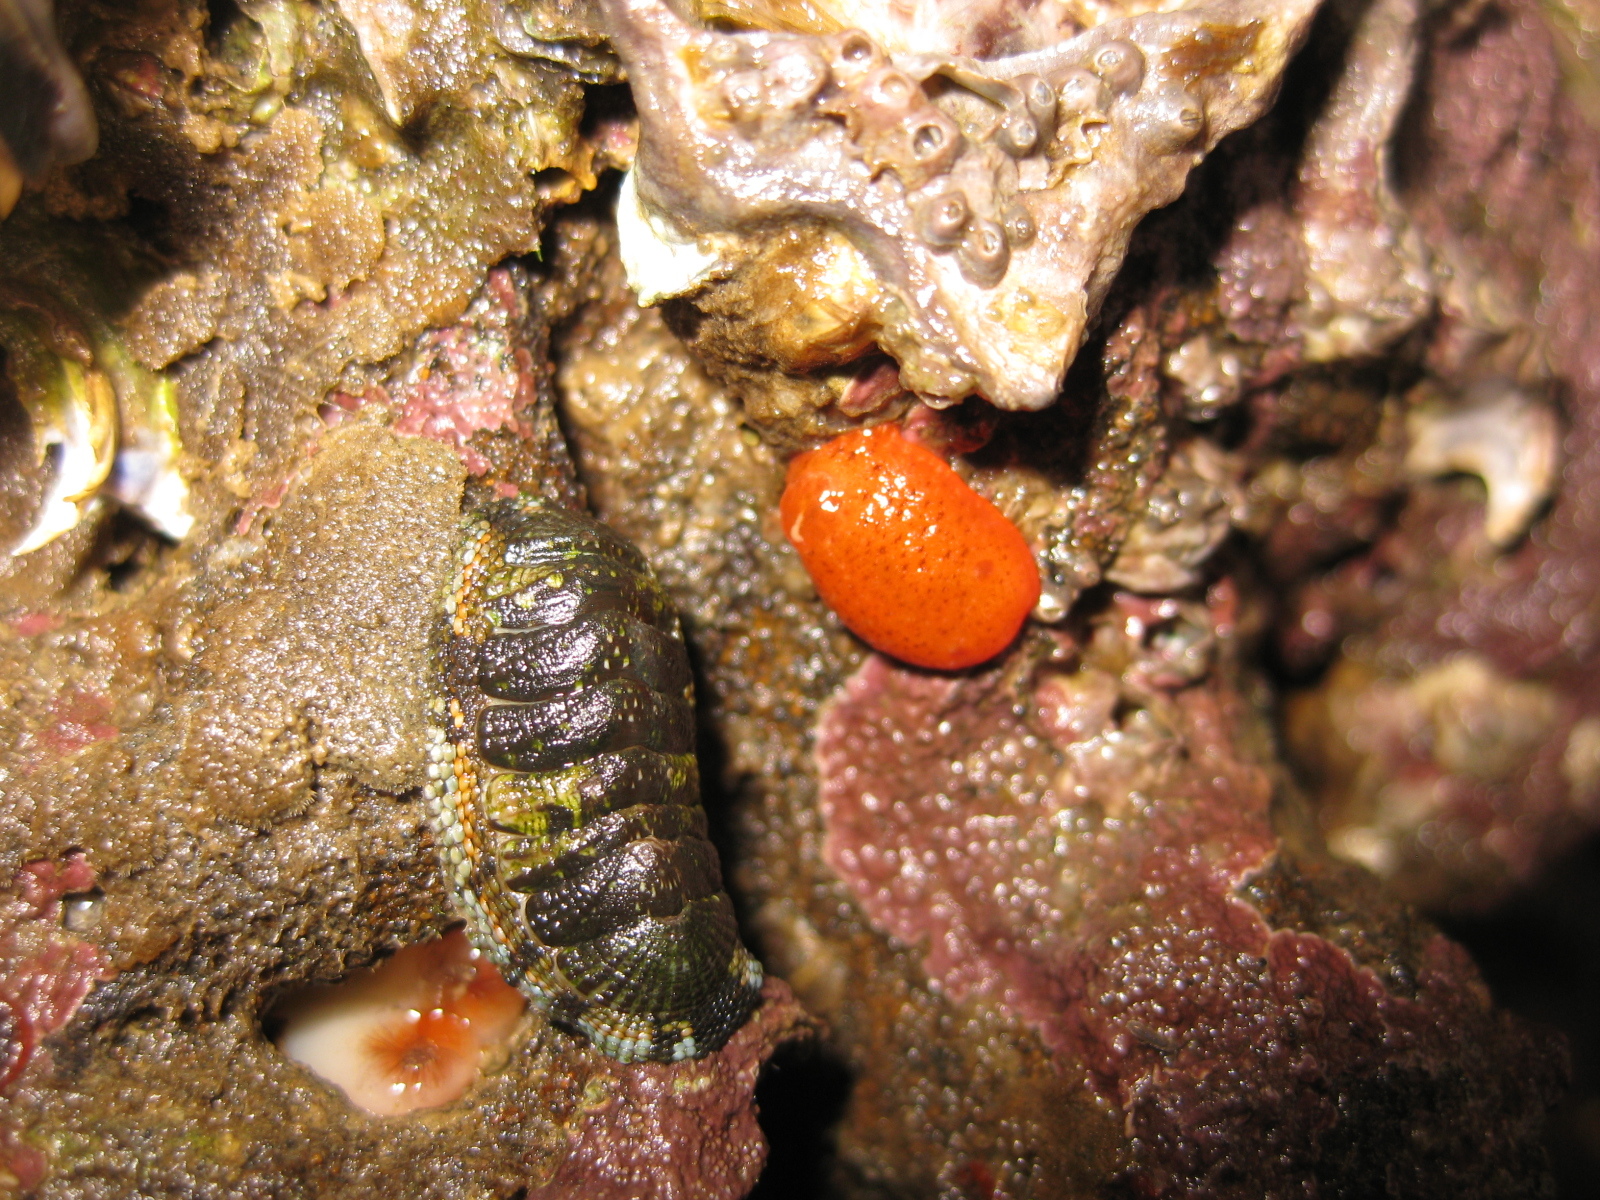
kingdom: Animalia
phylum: Mollusca
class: Polyplacophora
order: Chitonida
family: Chitonidae
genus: Sypharochiton
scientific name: Sypharochiton sinclairi
